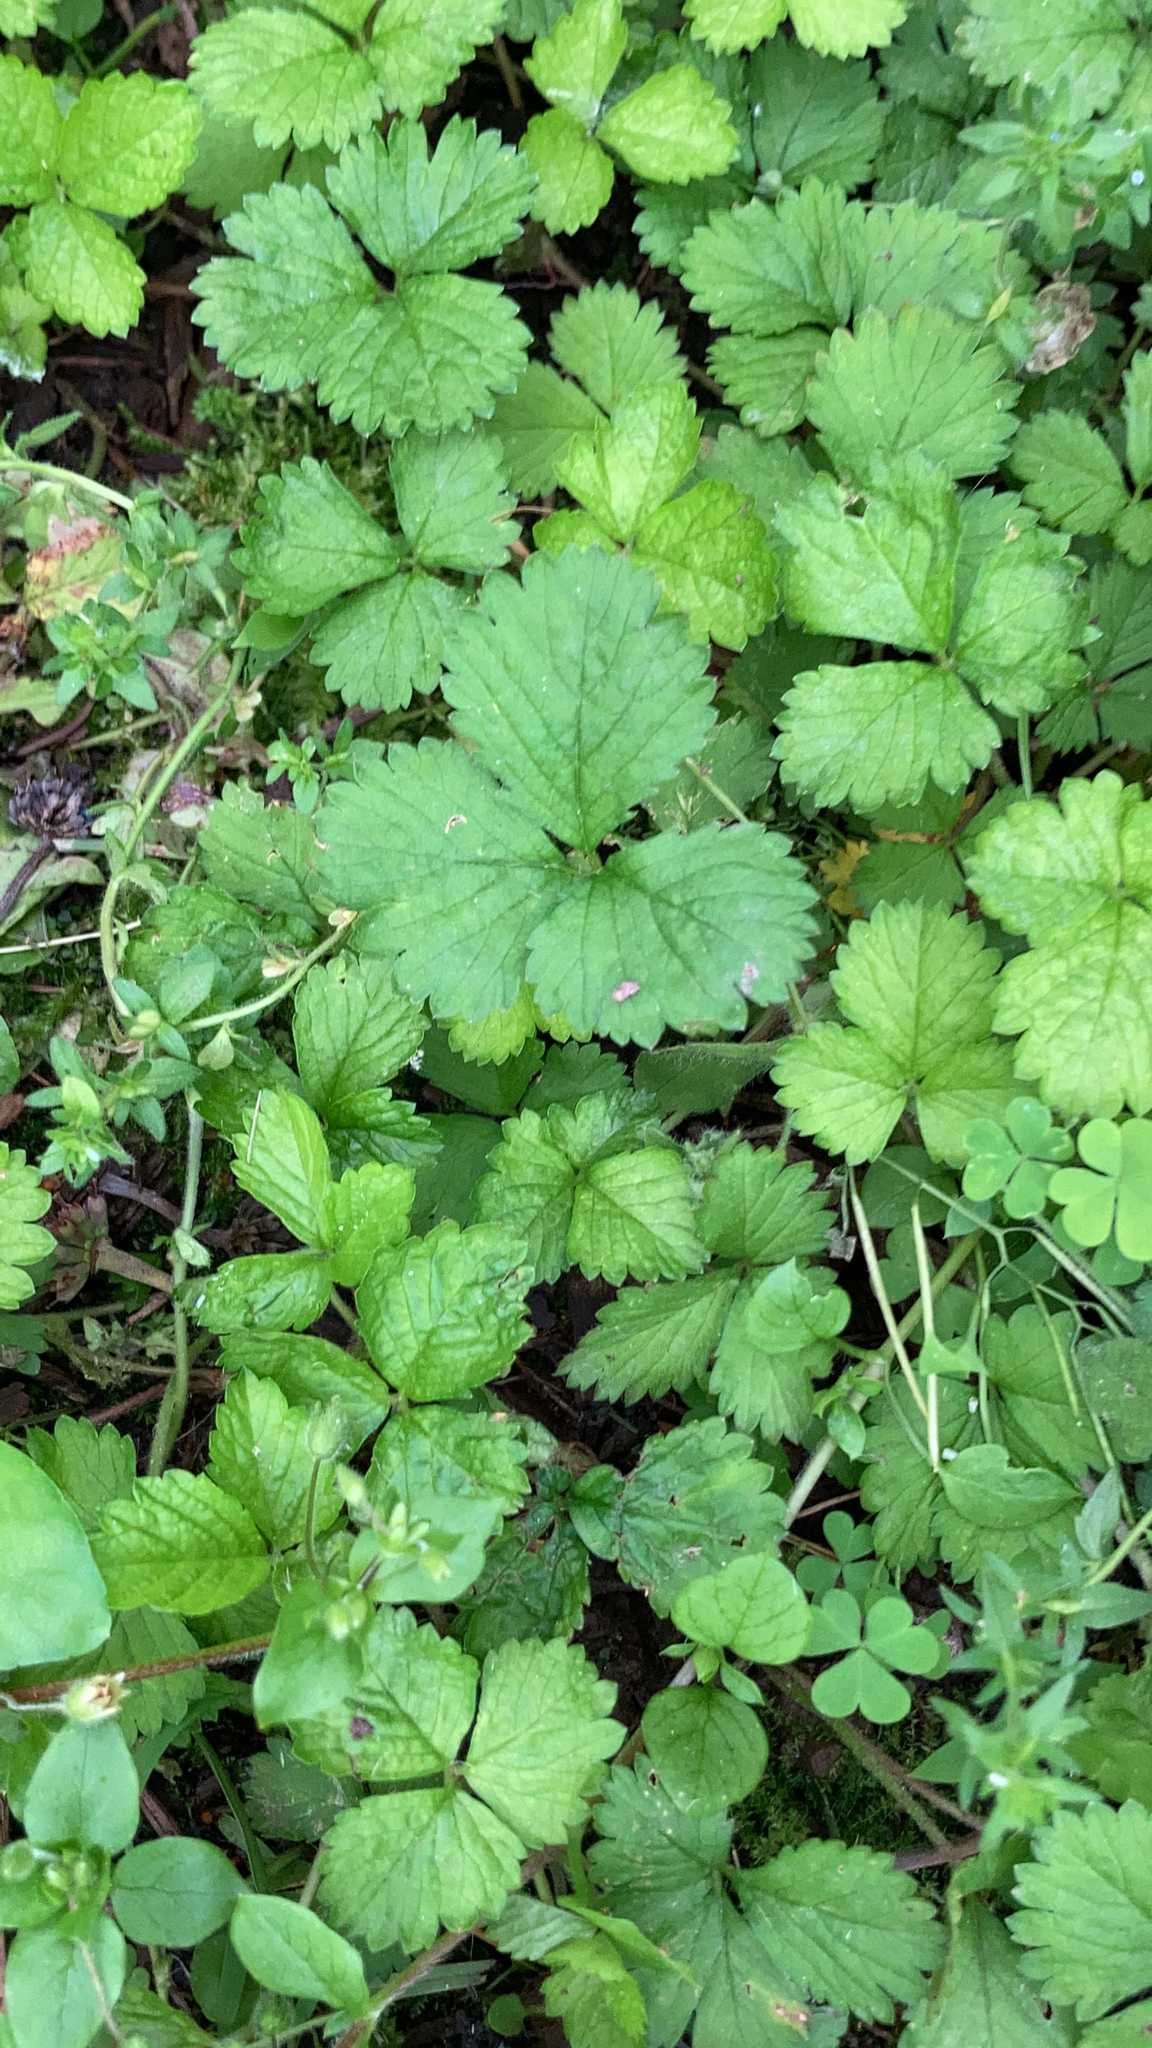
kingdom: Plantae
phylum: Tracheophyta
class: Magnoliopsida
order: Rosales
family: Rosaceae
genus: Potentilla
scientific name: Potentilla indica
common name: Yellow-flowered strawberry
